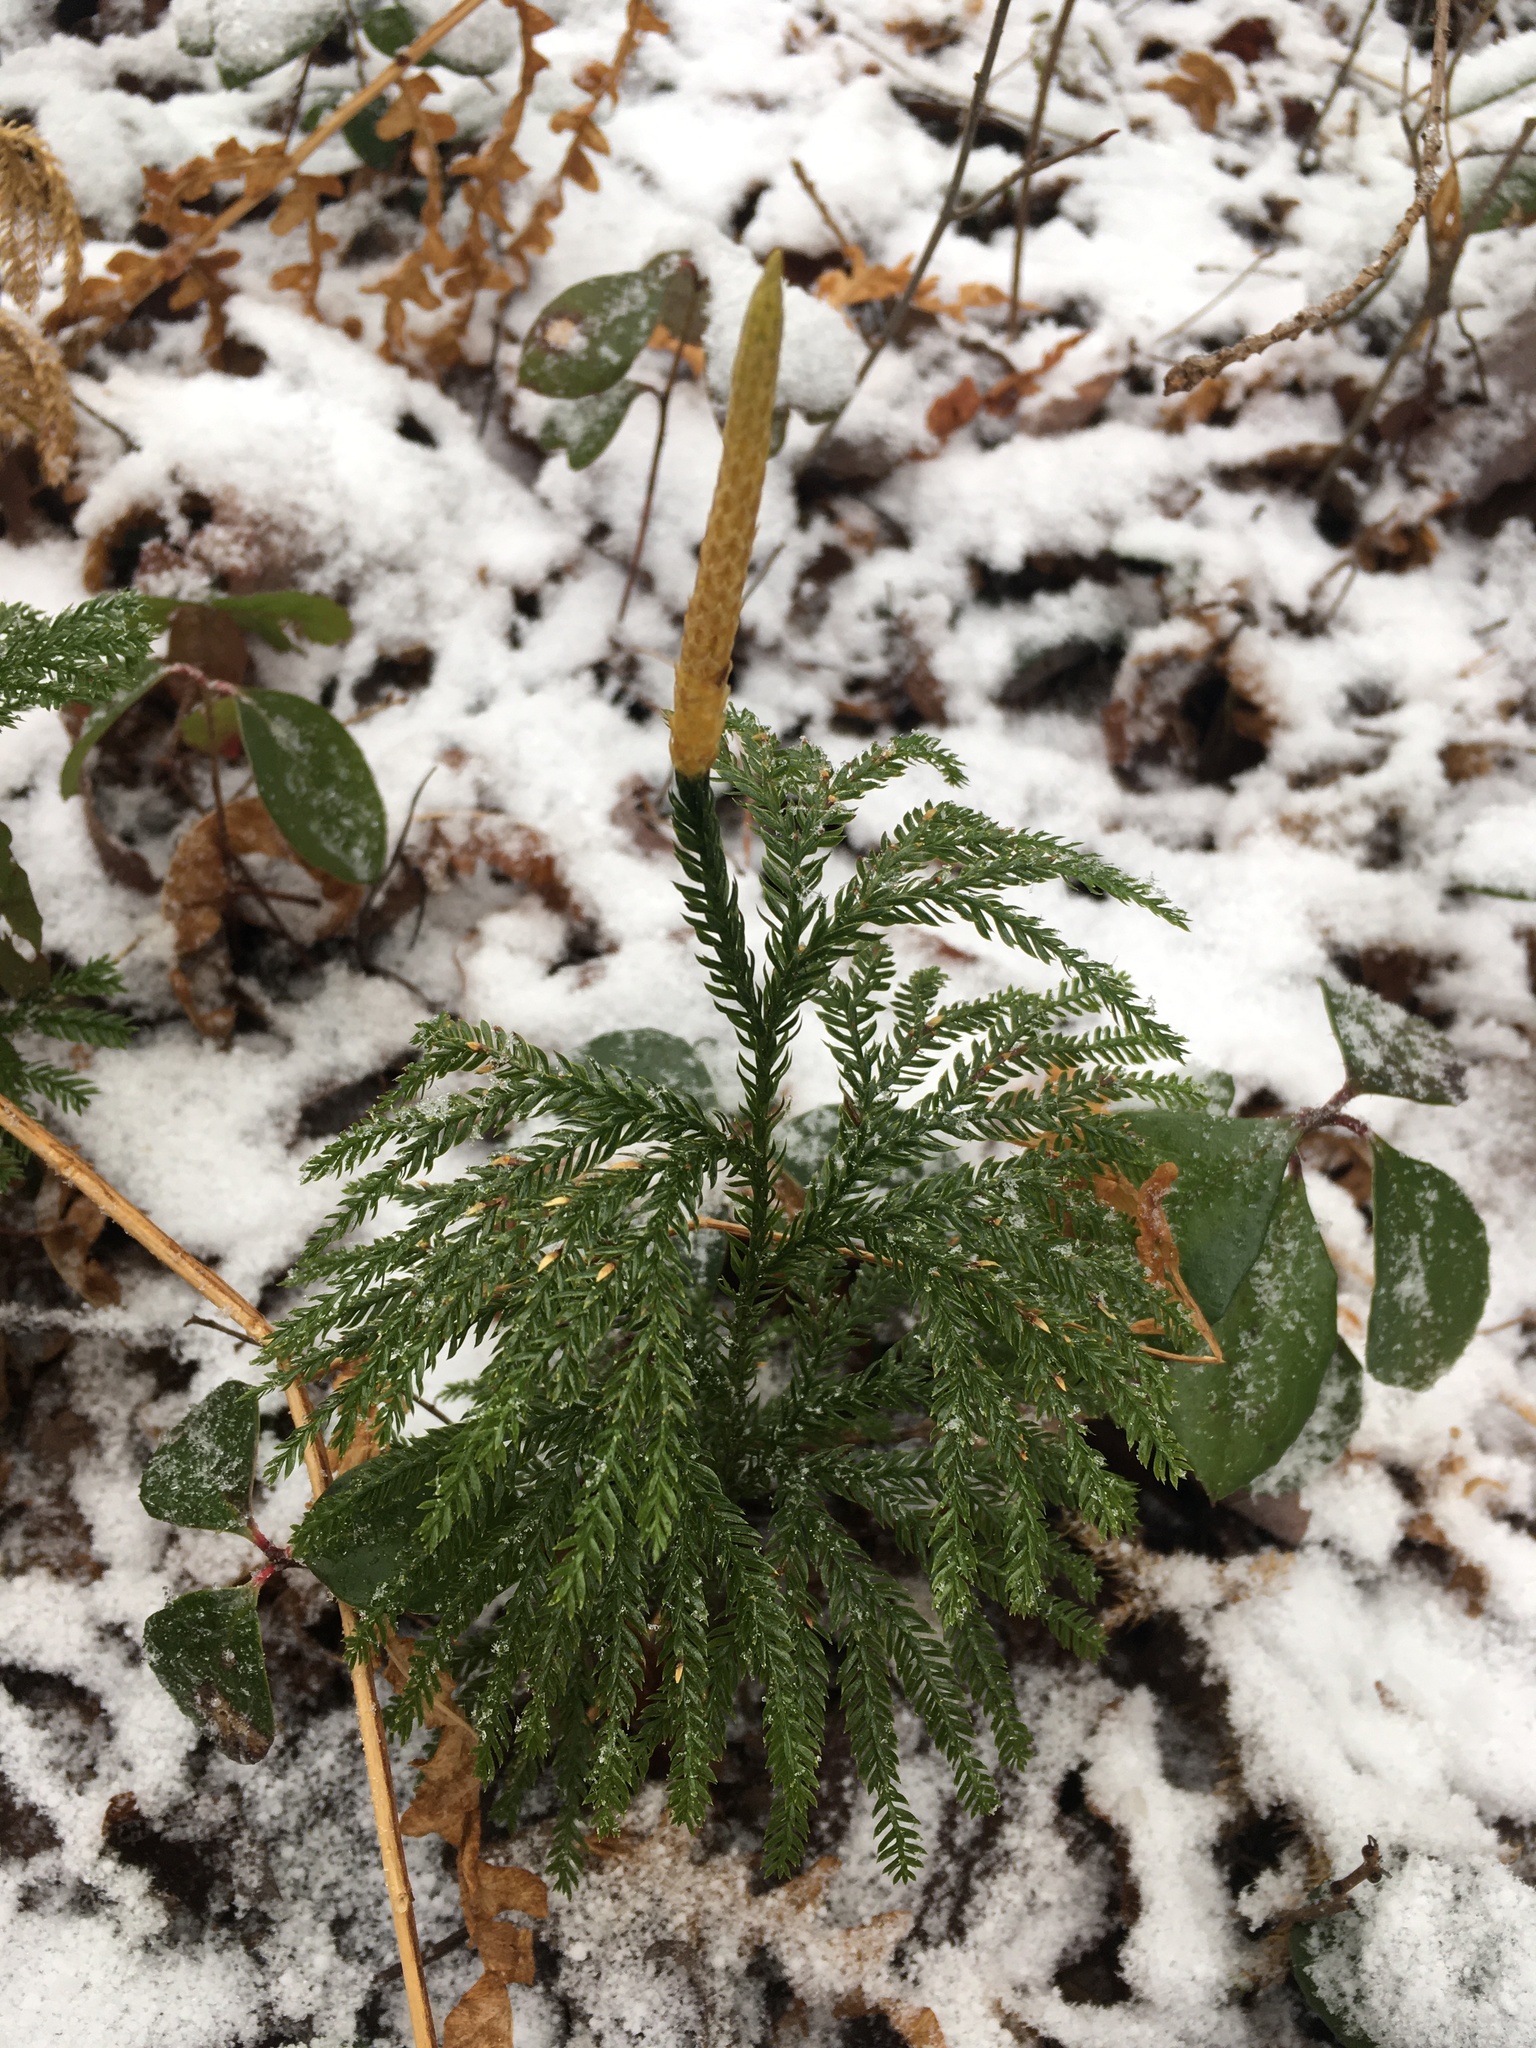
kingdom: Plantae
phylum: Tracheophyta
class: Lycopodiopsida
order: Lycopodiales
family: Lycopodiaceae
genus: Dendrolycopodium
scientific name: Dendrolycopodium obscurum
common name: Common ground-pine
